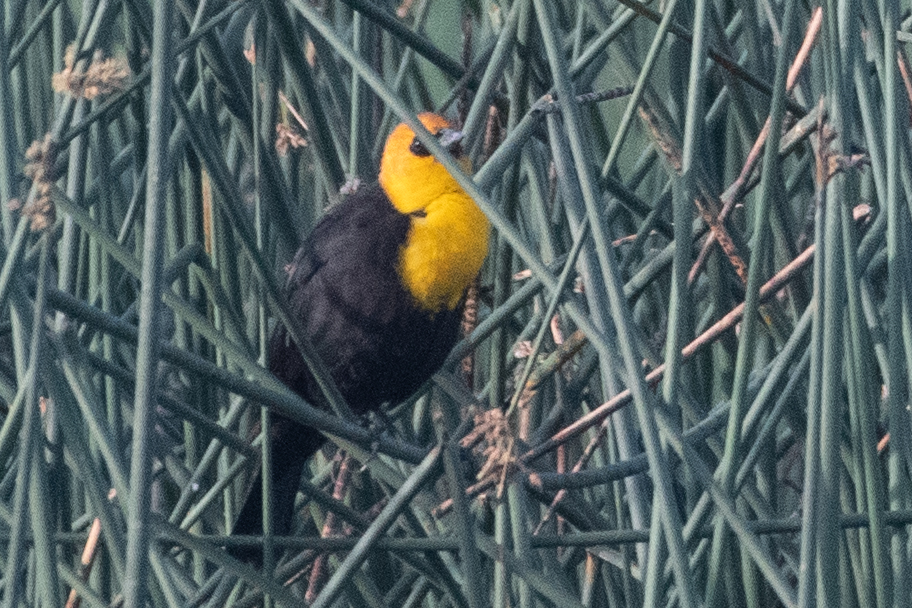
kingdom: Animalia
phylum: Chordata
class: Aves
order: Passeriformes
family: Icteridae
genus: Xanthocephalus
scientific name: Xanthocephalus xanthocephalus
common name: Yellow-headed blackbird
